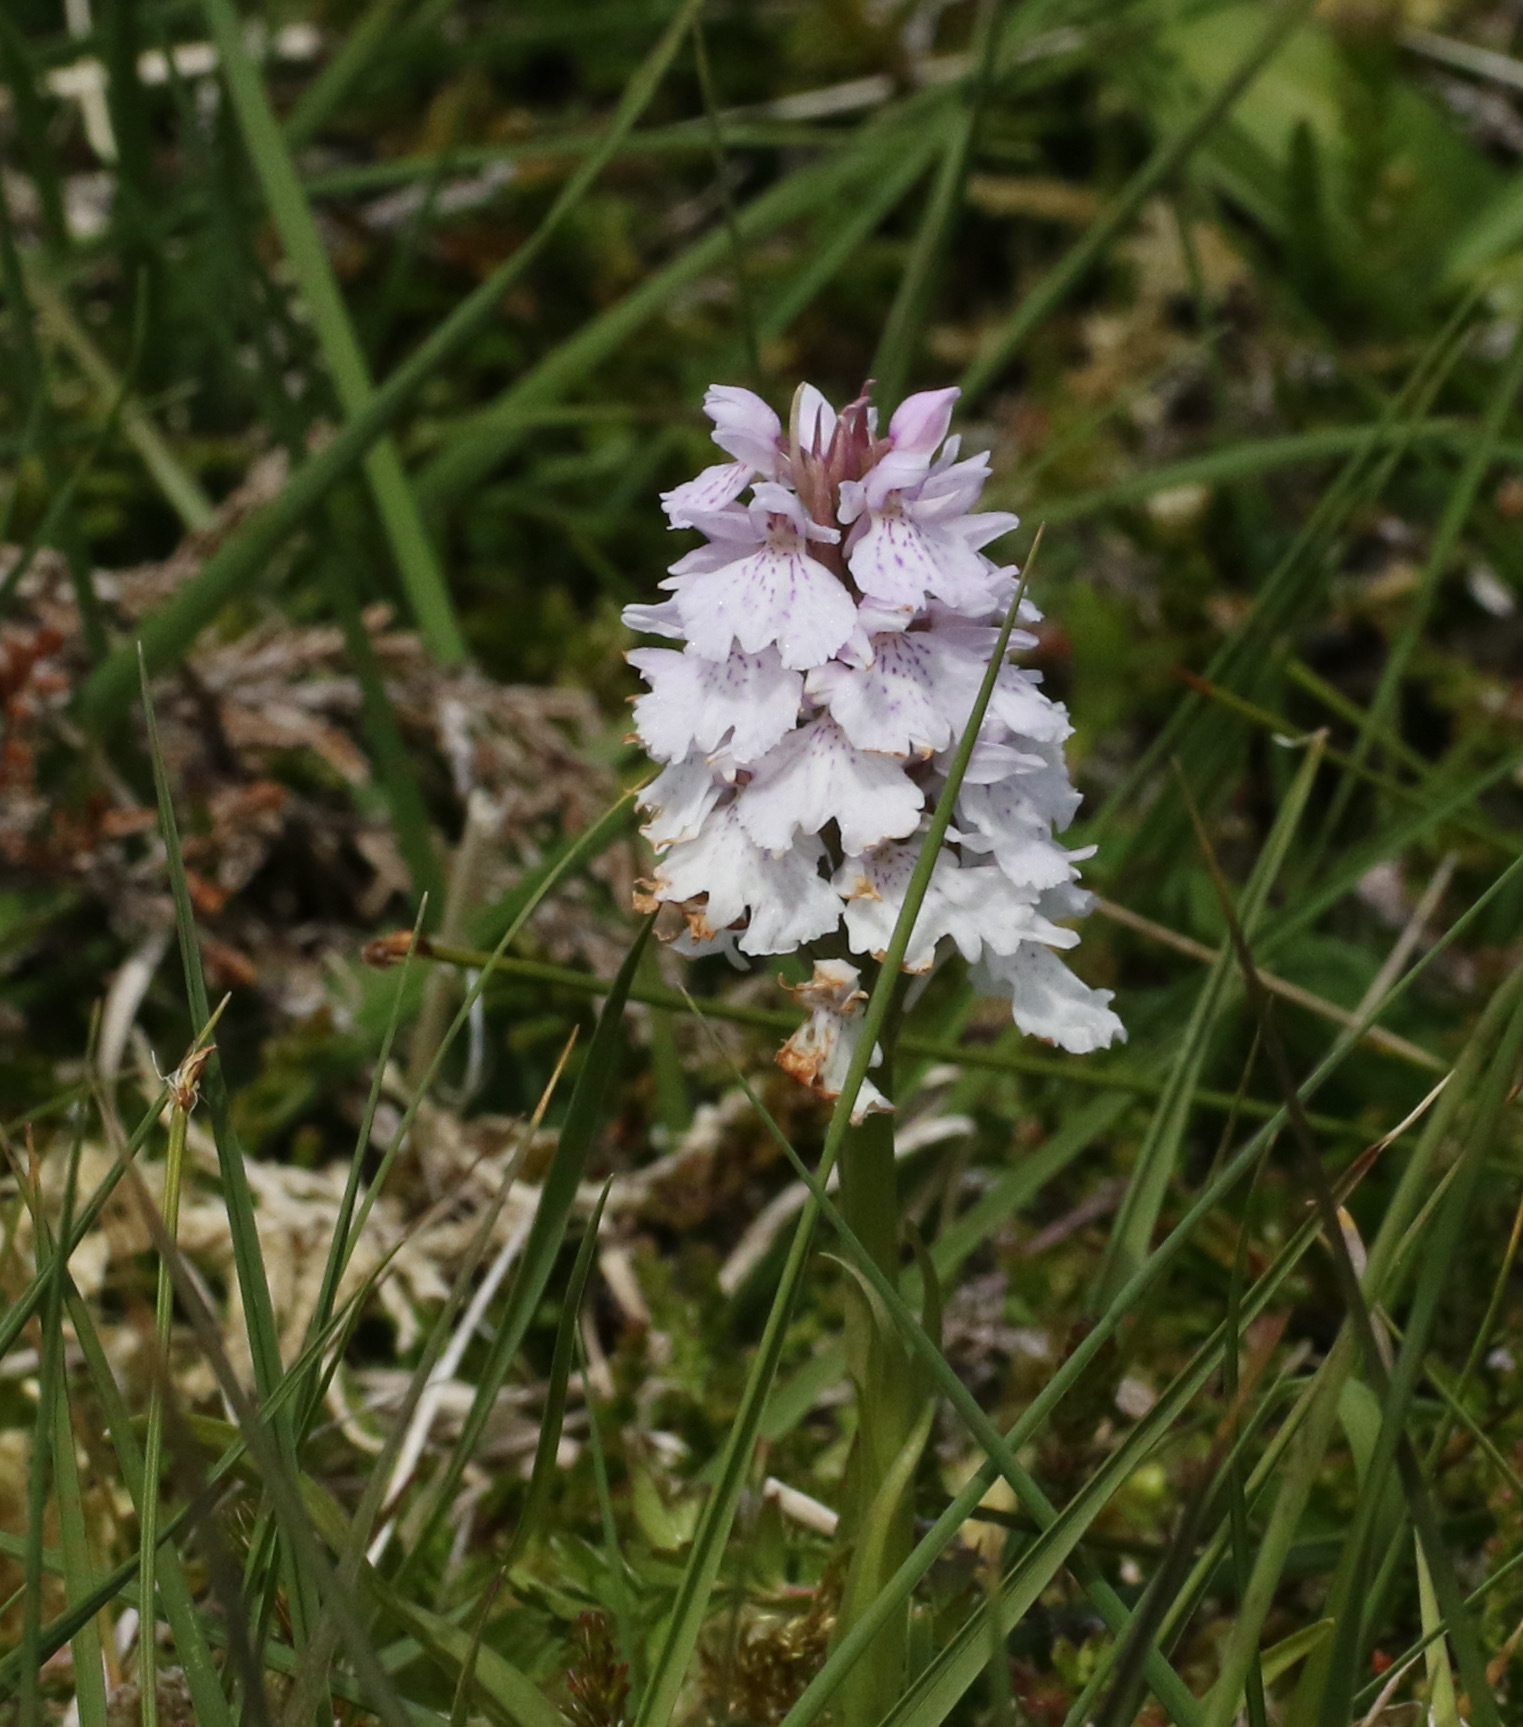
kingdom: Plantae
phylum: Tracheophyta
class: Liliopsida
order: Asparagales
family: Orchidaceae
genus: Dactylorhiza
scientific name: Dactylorhiza maculata
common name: Heath spotted-orchid
